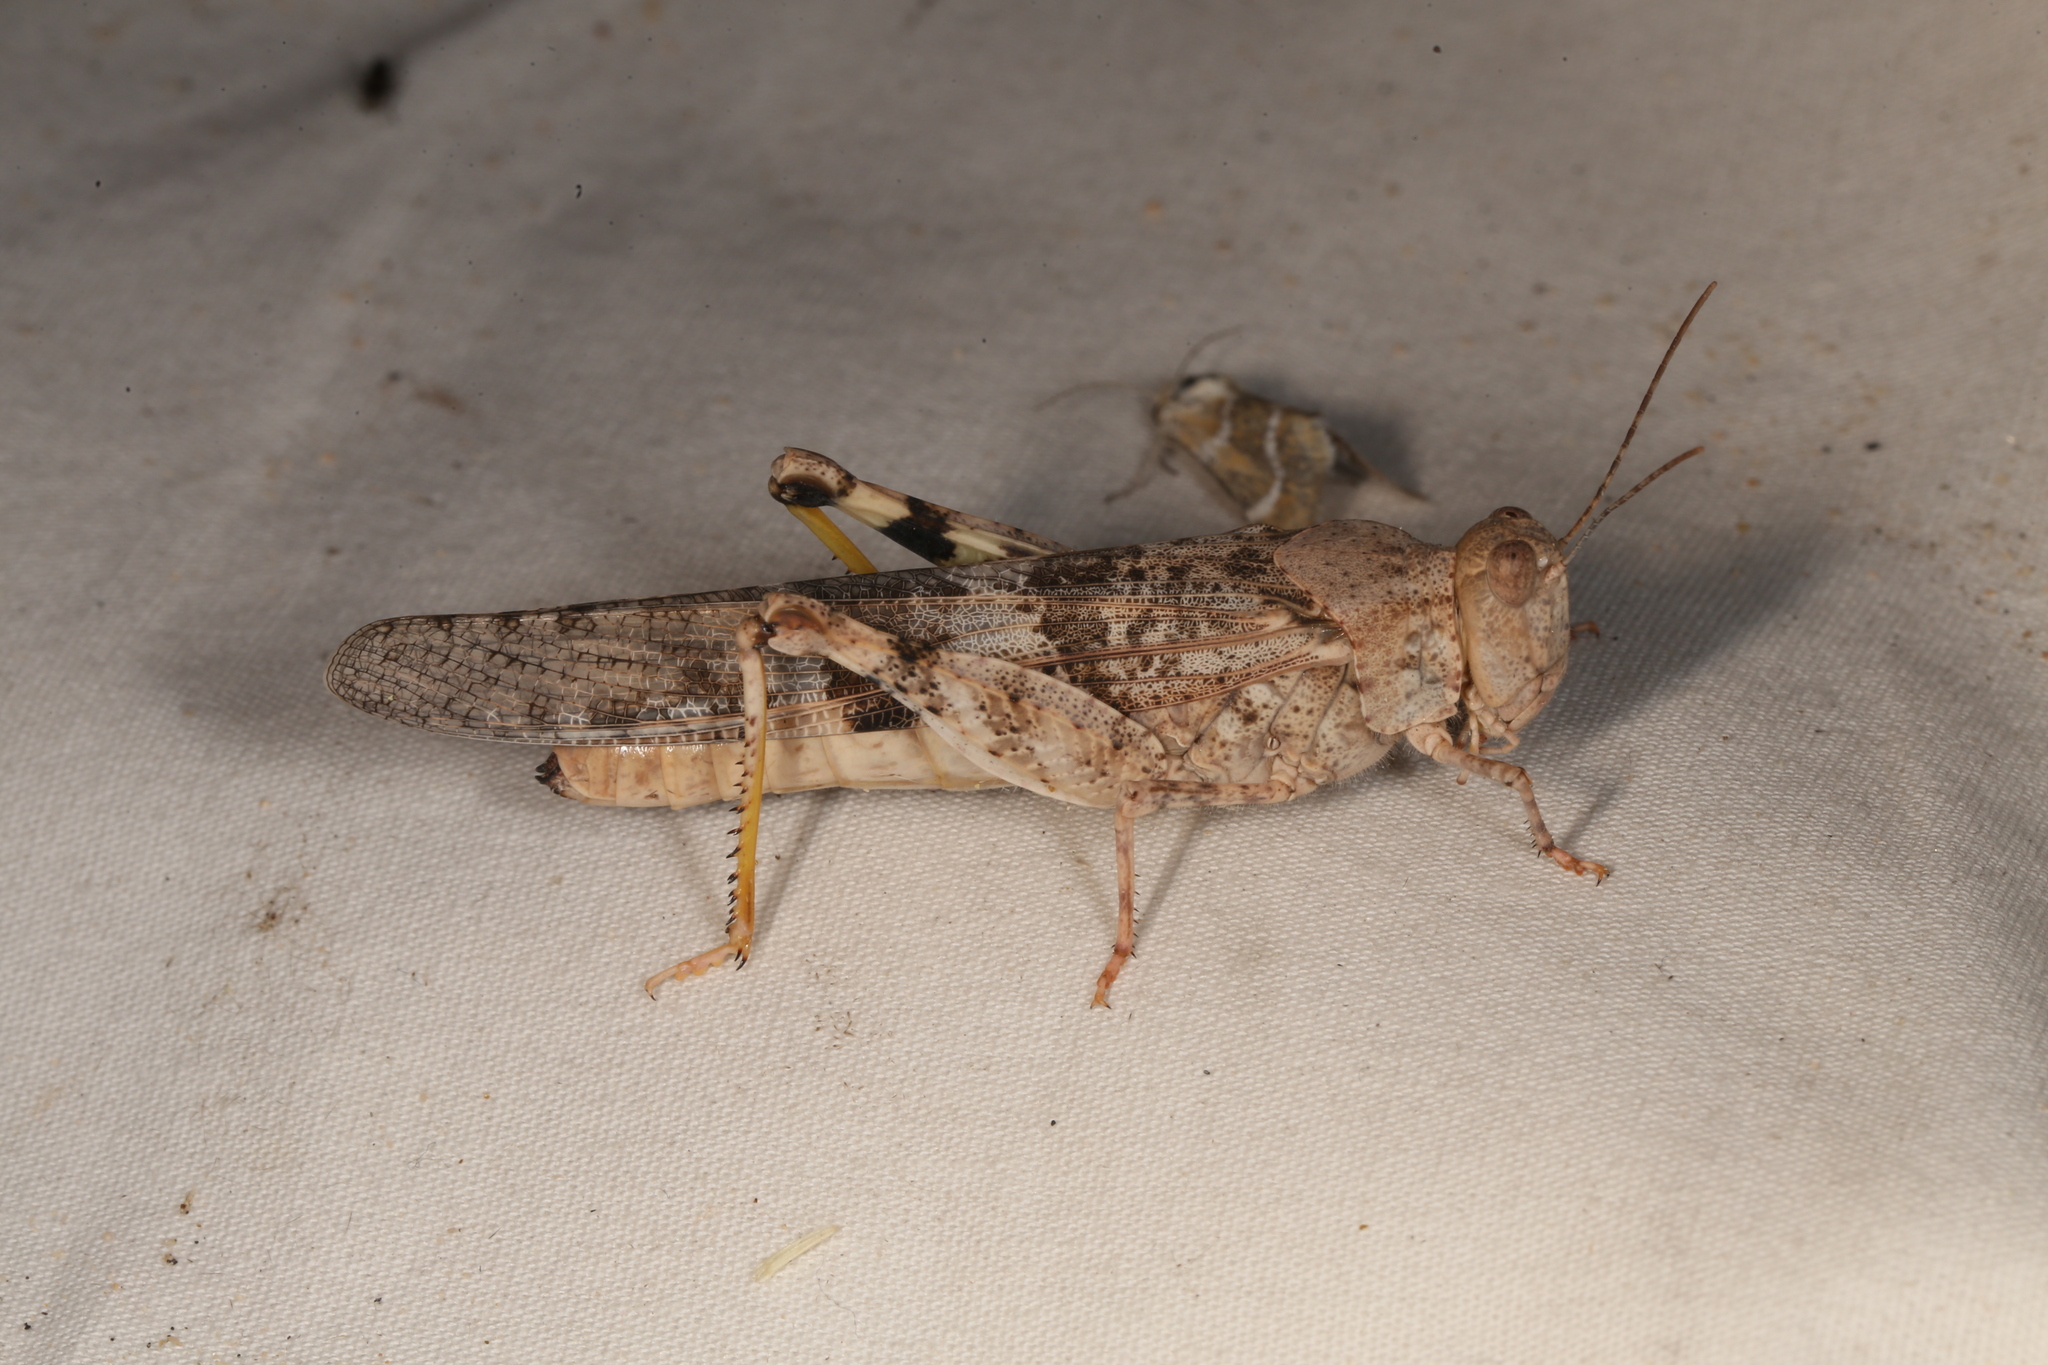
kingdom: Animalia
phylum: Arthropoda
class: Insecta
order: Orthoptera
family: Acrididae
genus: Trimerotropis
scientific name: Trimerotropis pallidipennis
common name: Pallid-winged grasshopper
